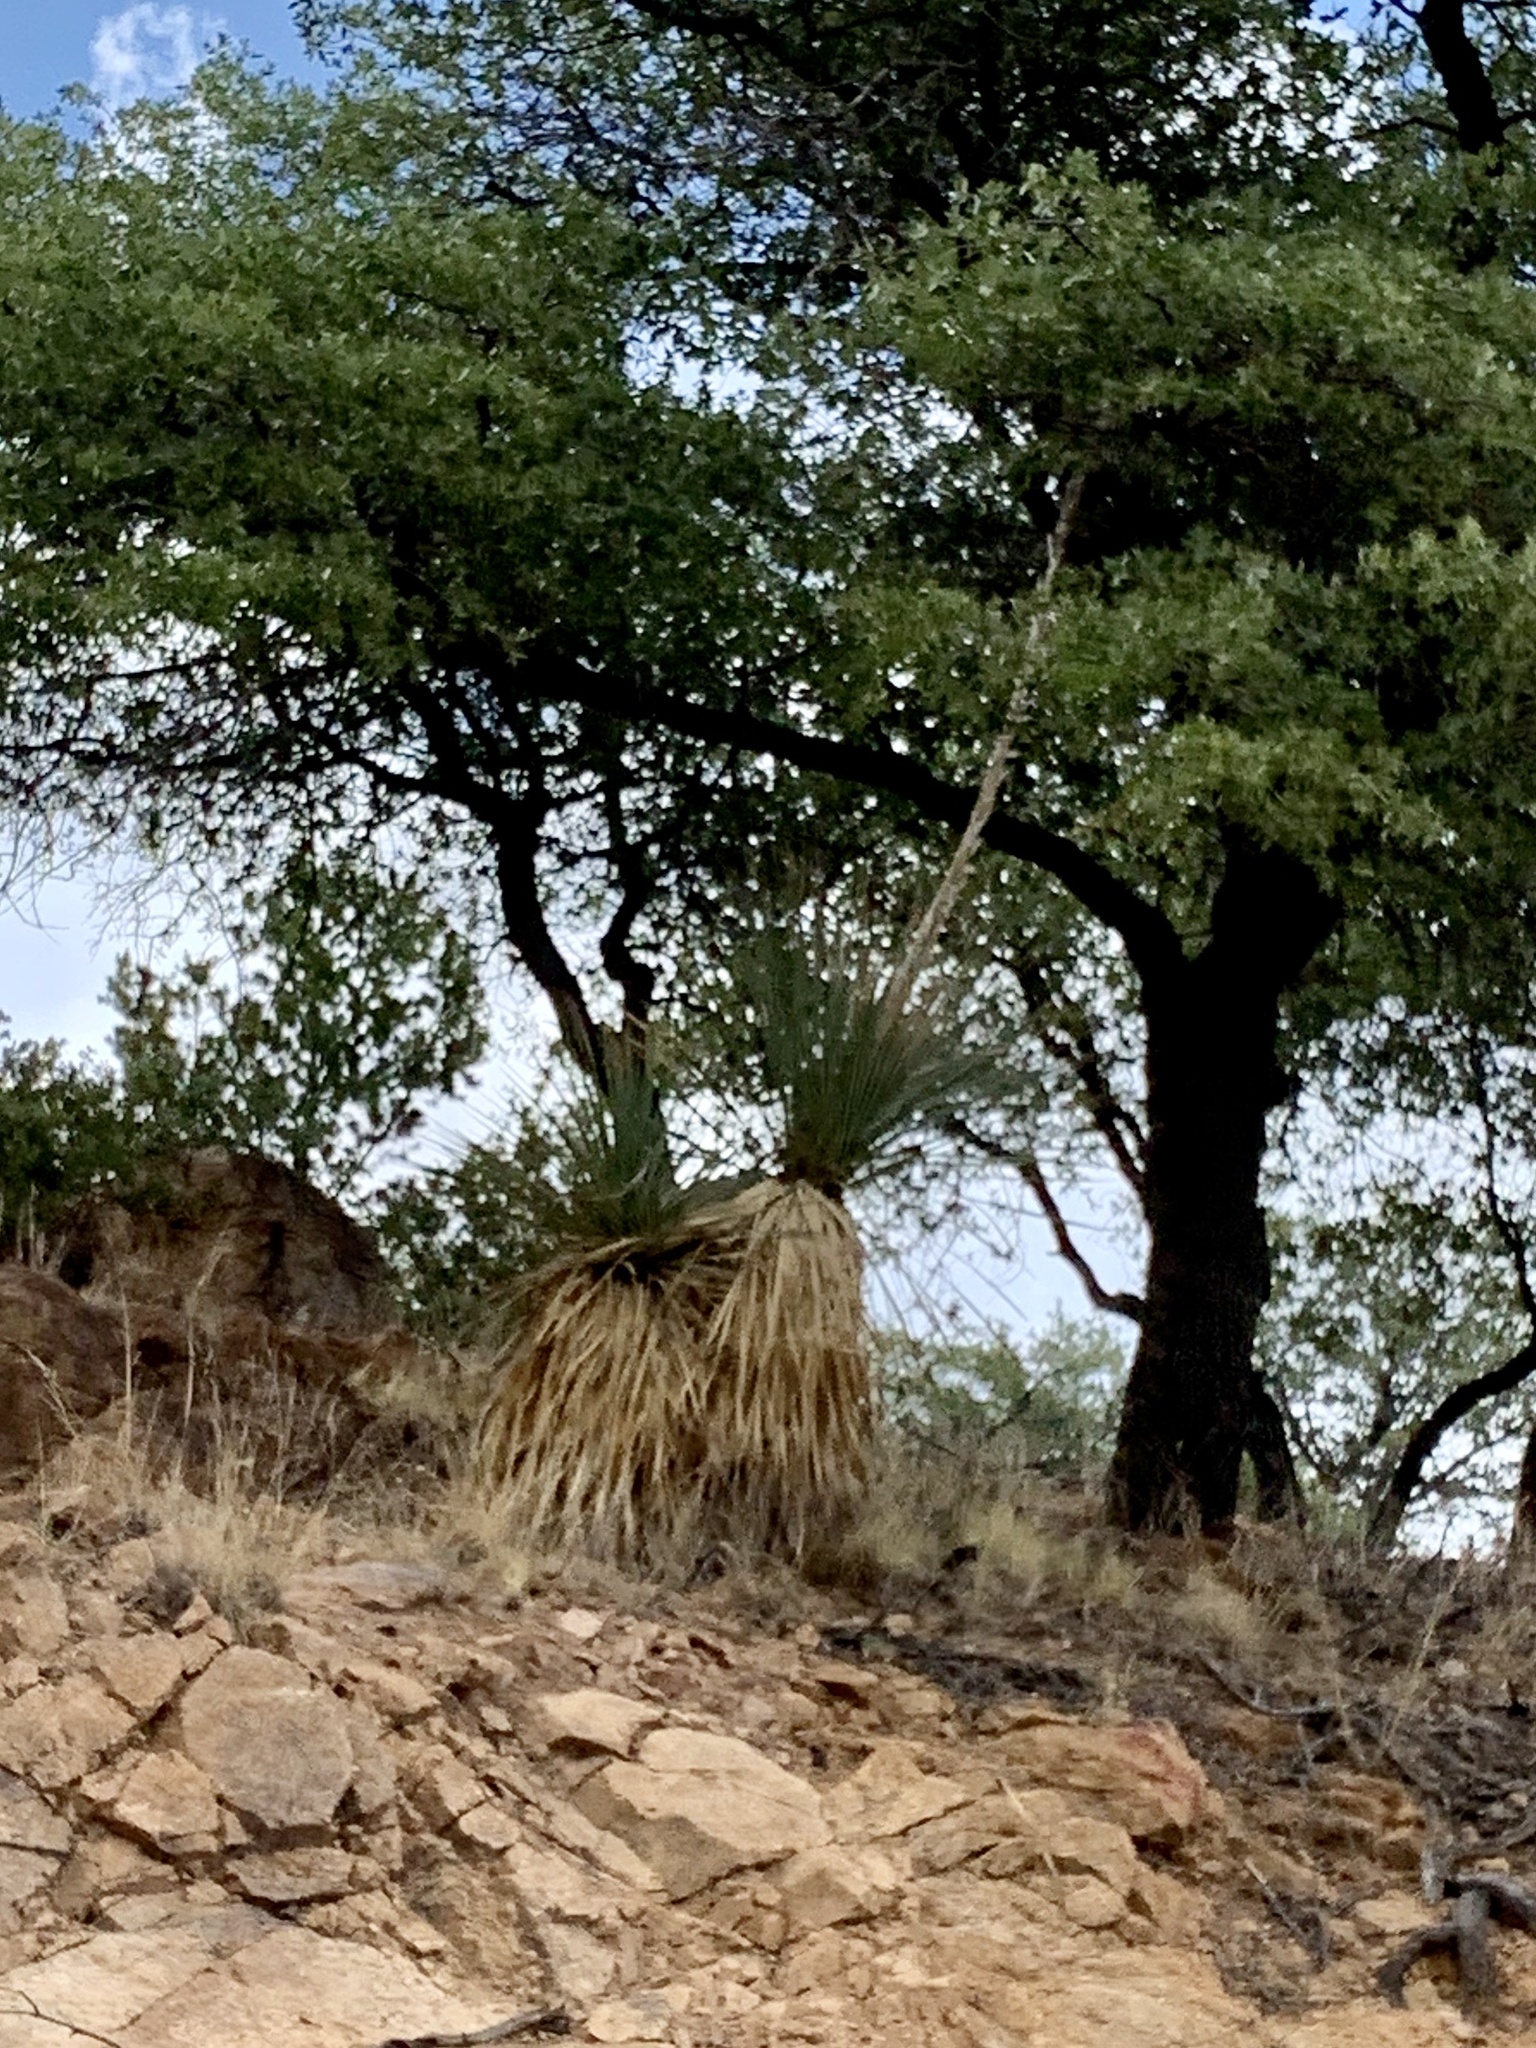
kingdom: Plantae
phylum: Tracheophyta
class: Liliopsida
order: Asparagales
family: Asparagaceae
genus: Dasylirion
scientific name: Dasylirion wheeleri
